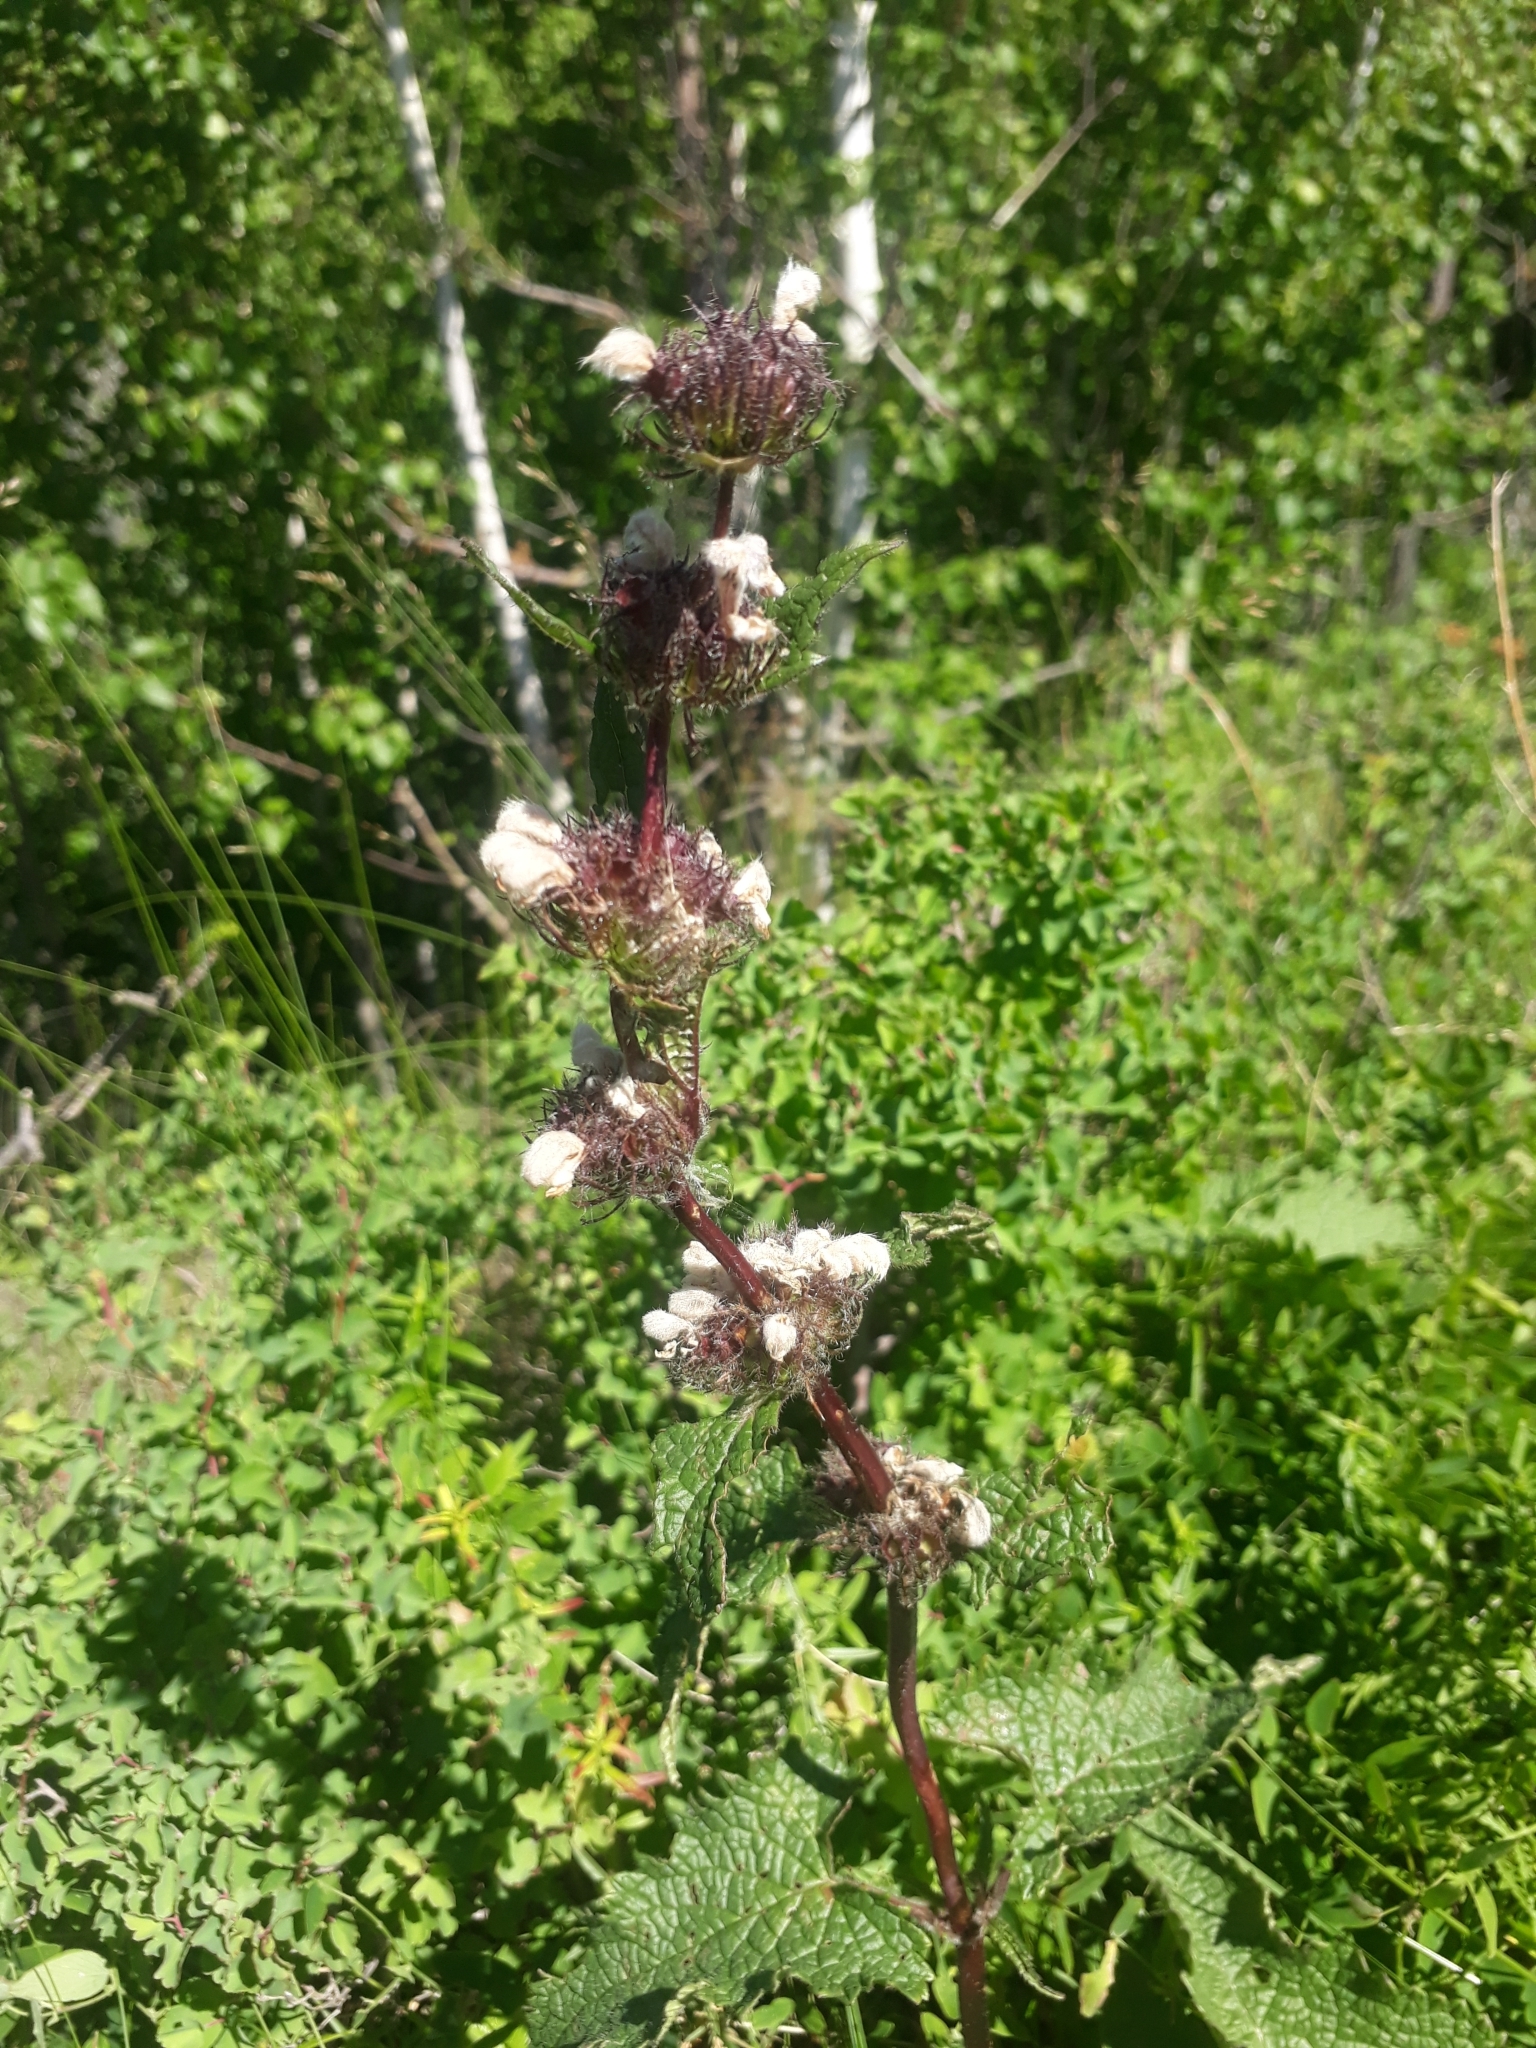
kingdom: Plantae
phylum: Tracheophyta
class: Magnoliopsida
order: Lamiales
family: Lamiaceae
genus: Phlomoides
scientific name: Phlomoides tuberosa
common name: Tuberous jerusalem sage
